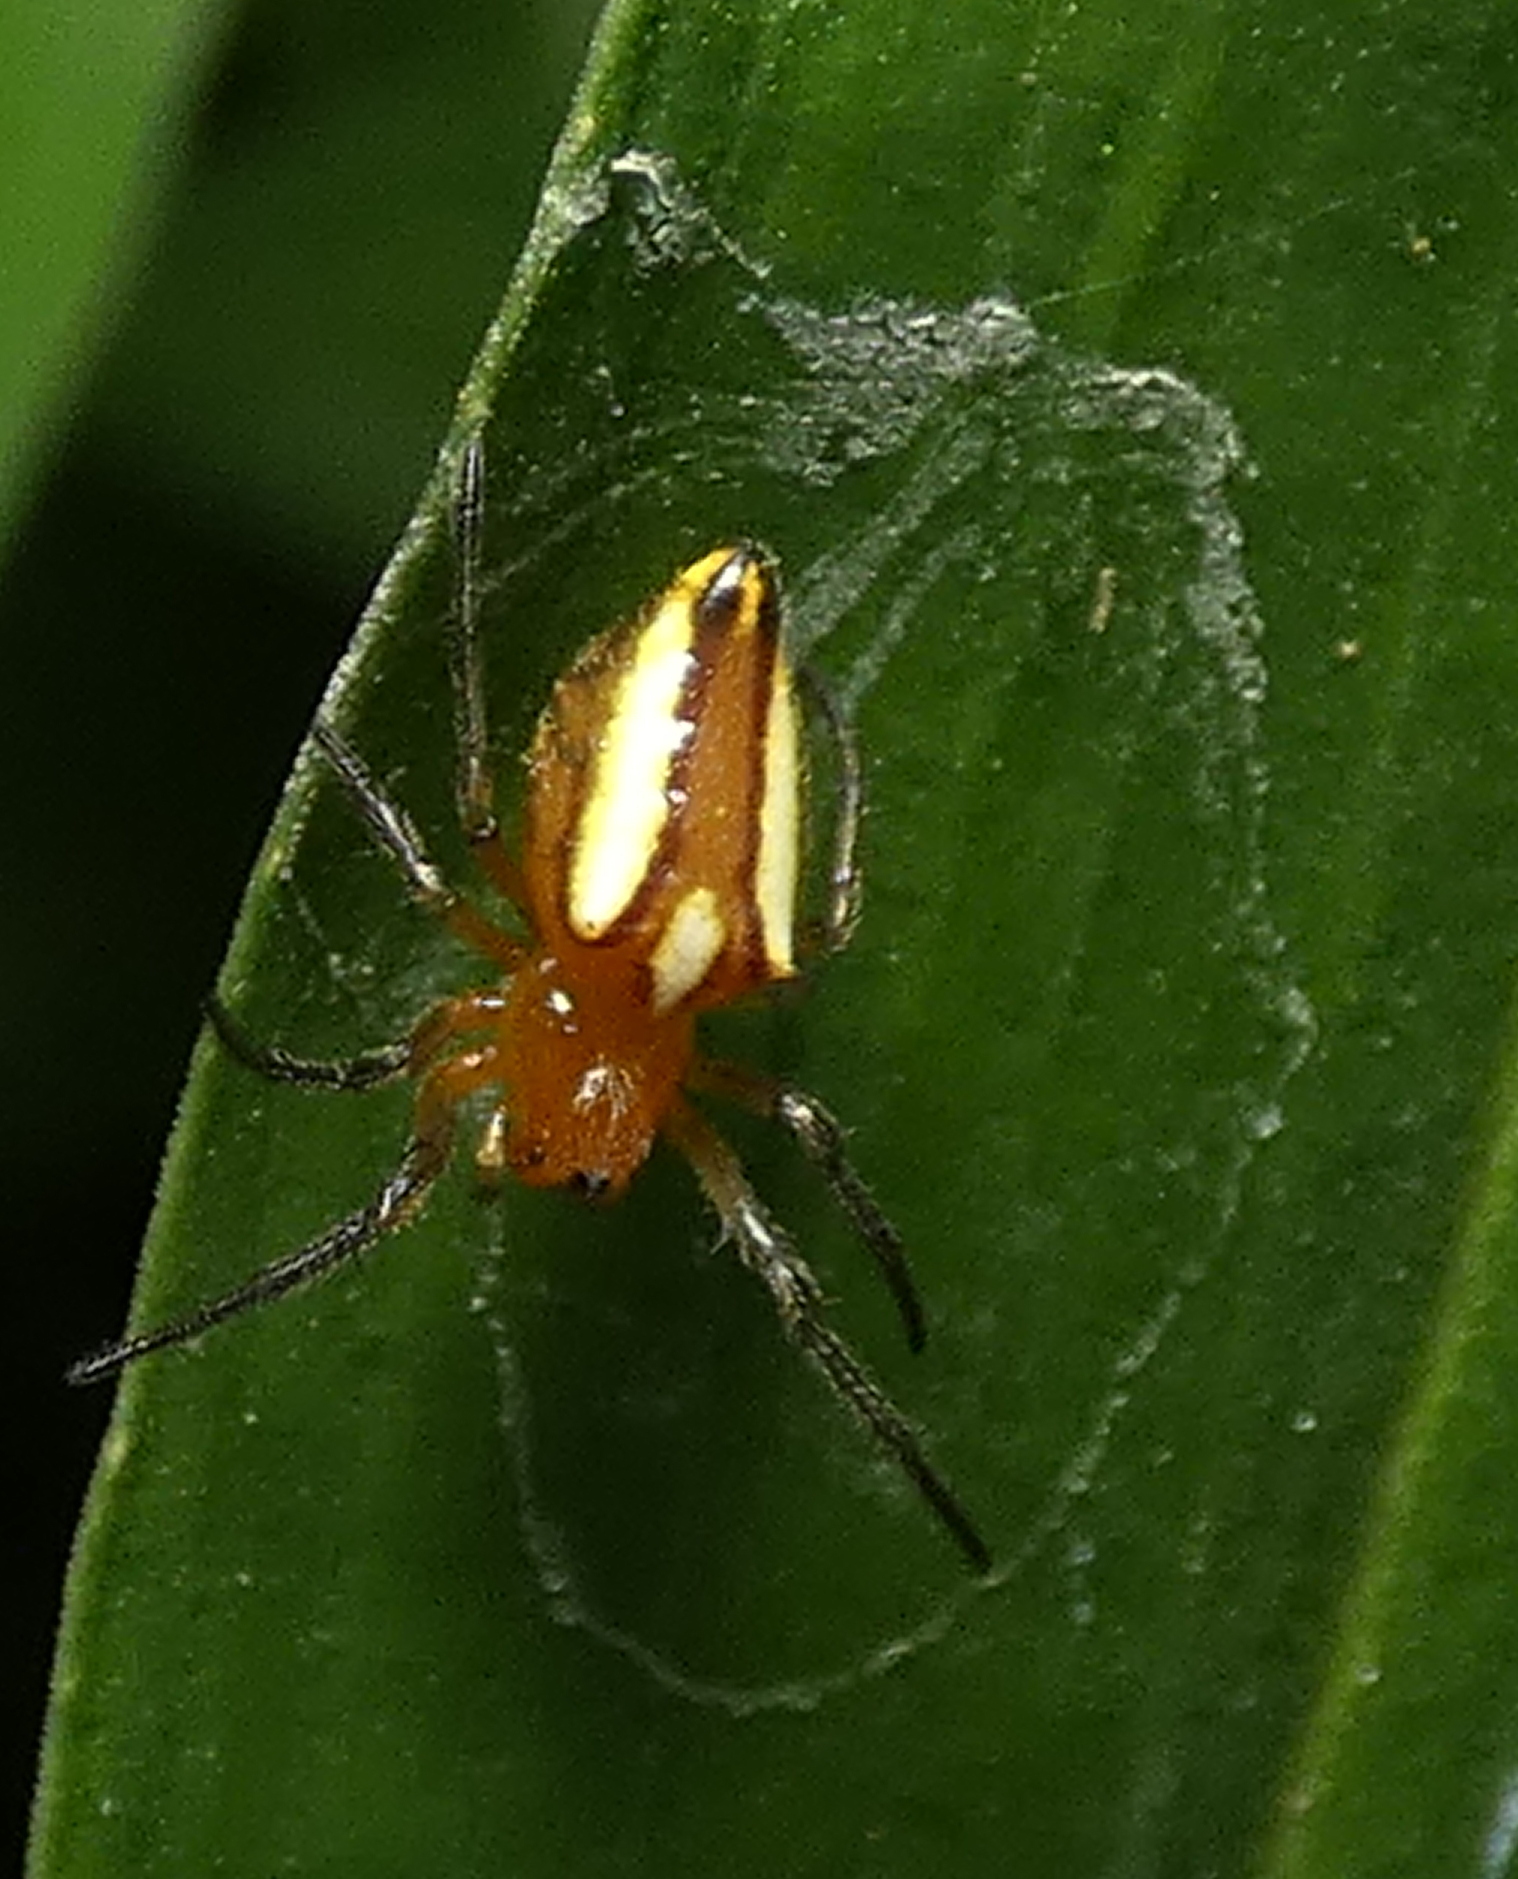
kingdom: Animalia
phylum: Arthropoda
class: Arachnida
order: Araneae
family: Araneidae
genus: Alpaida
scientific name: Alpaida bicornuta
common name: Orb weavers
